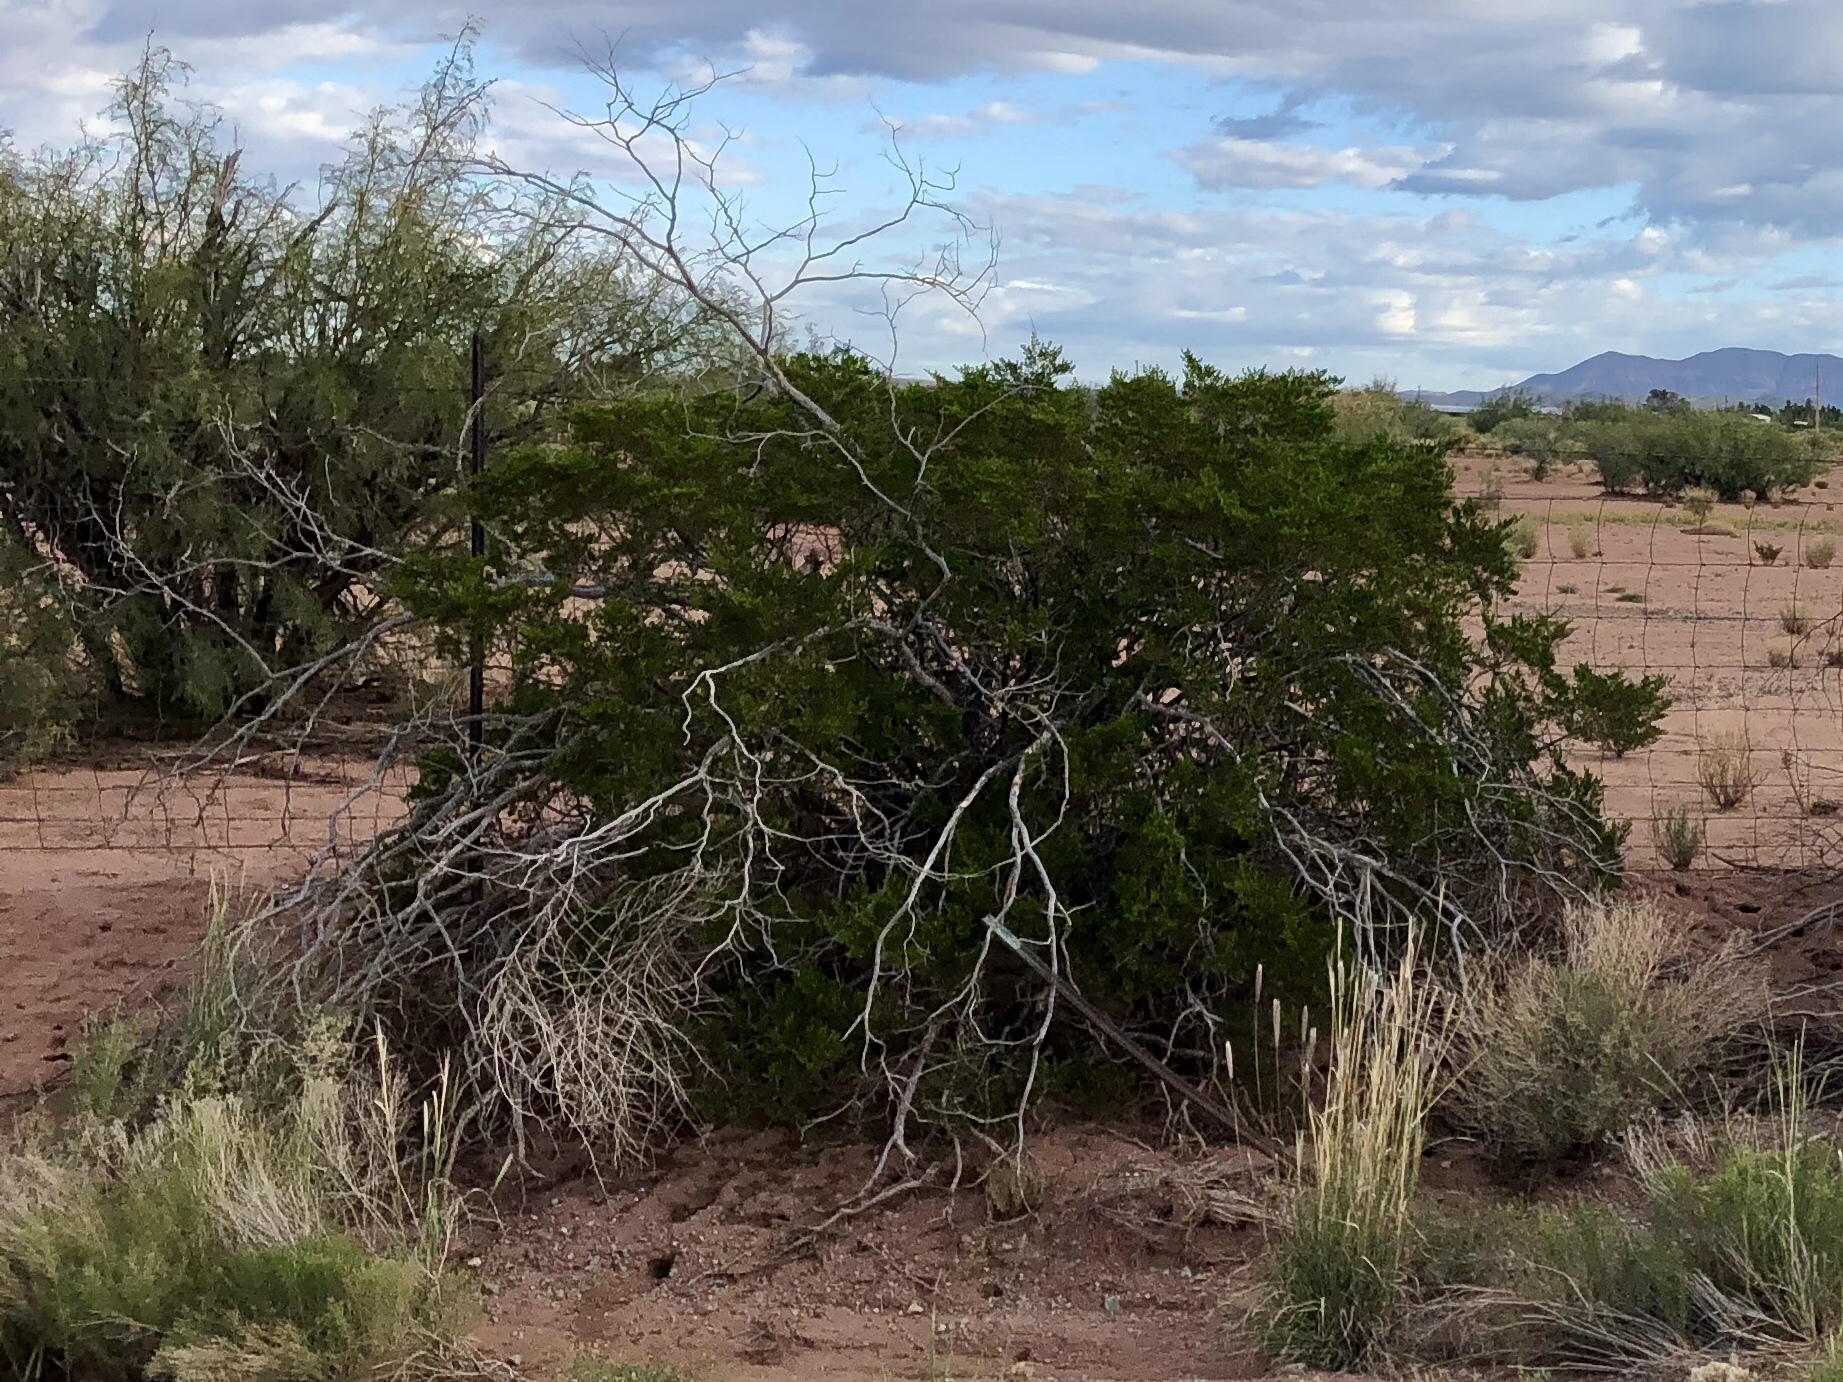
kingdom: Plantae
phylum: Tracheophyta
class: Magnoliopsida
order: Zygophyllales
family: Zygophyllaceae
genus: Larrea
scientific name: Larrea tridentata
